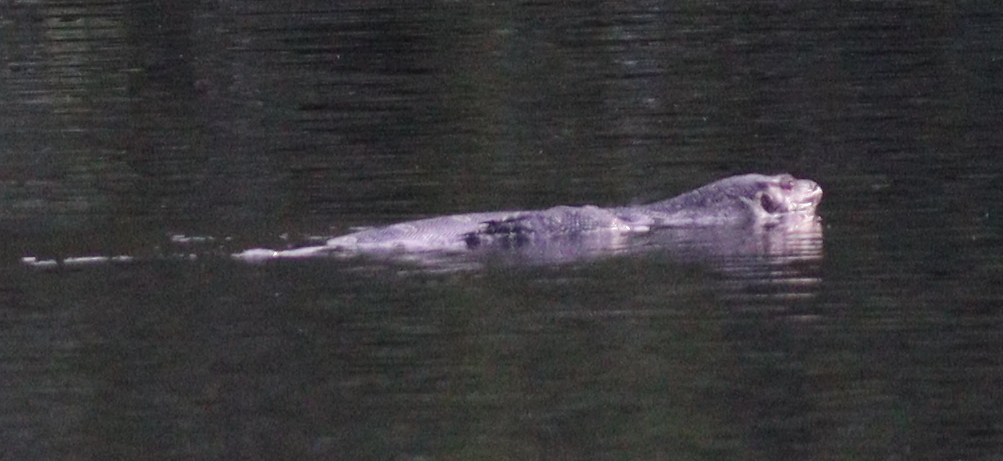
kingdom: Animalia
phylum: Chordata
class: Squamata
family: Varanidae
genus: Varanus
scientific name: Varanus salvator
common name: Common water monitor
